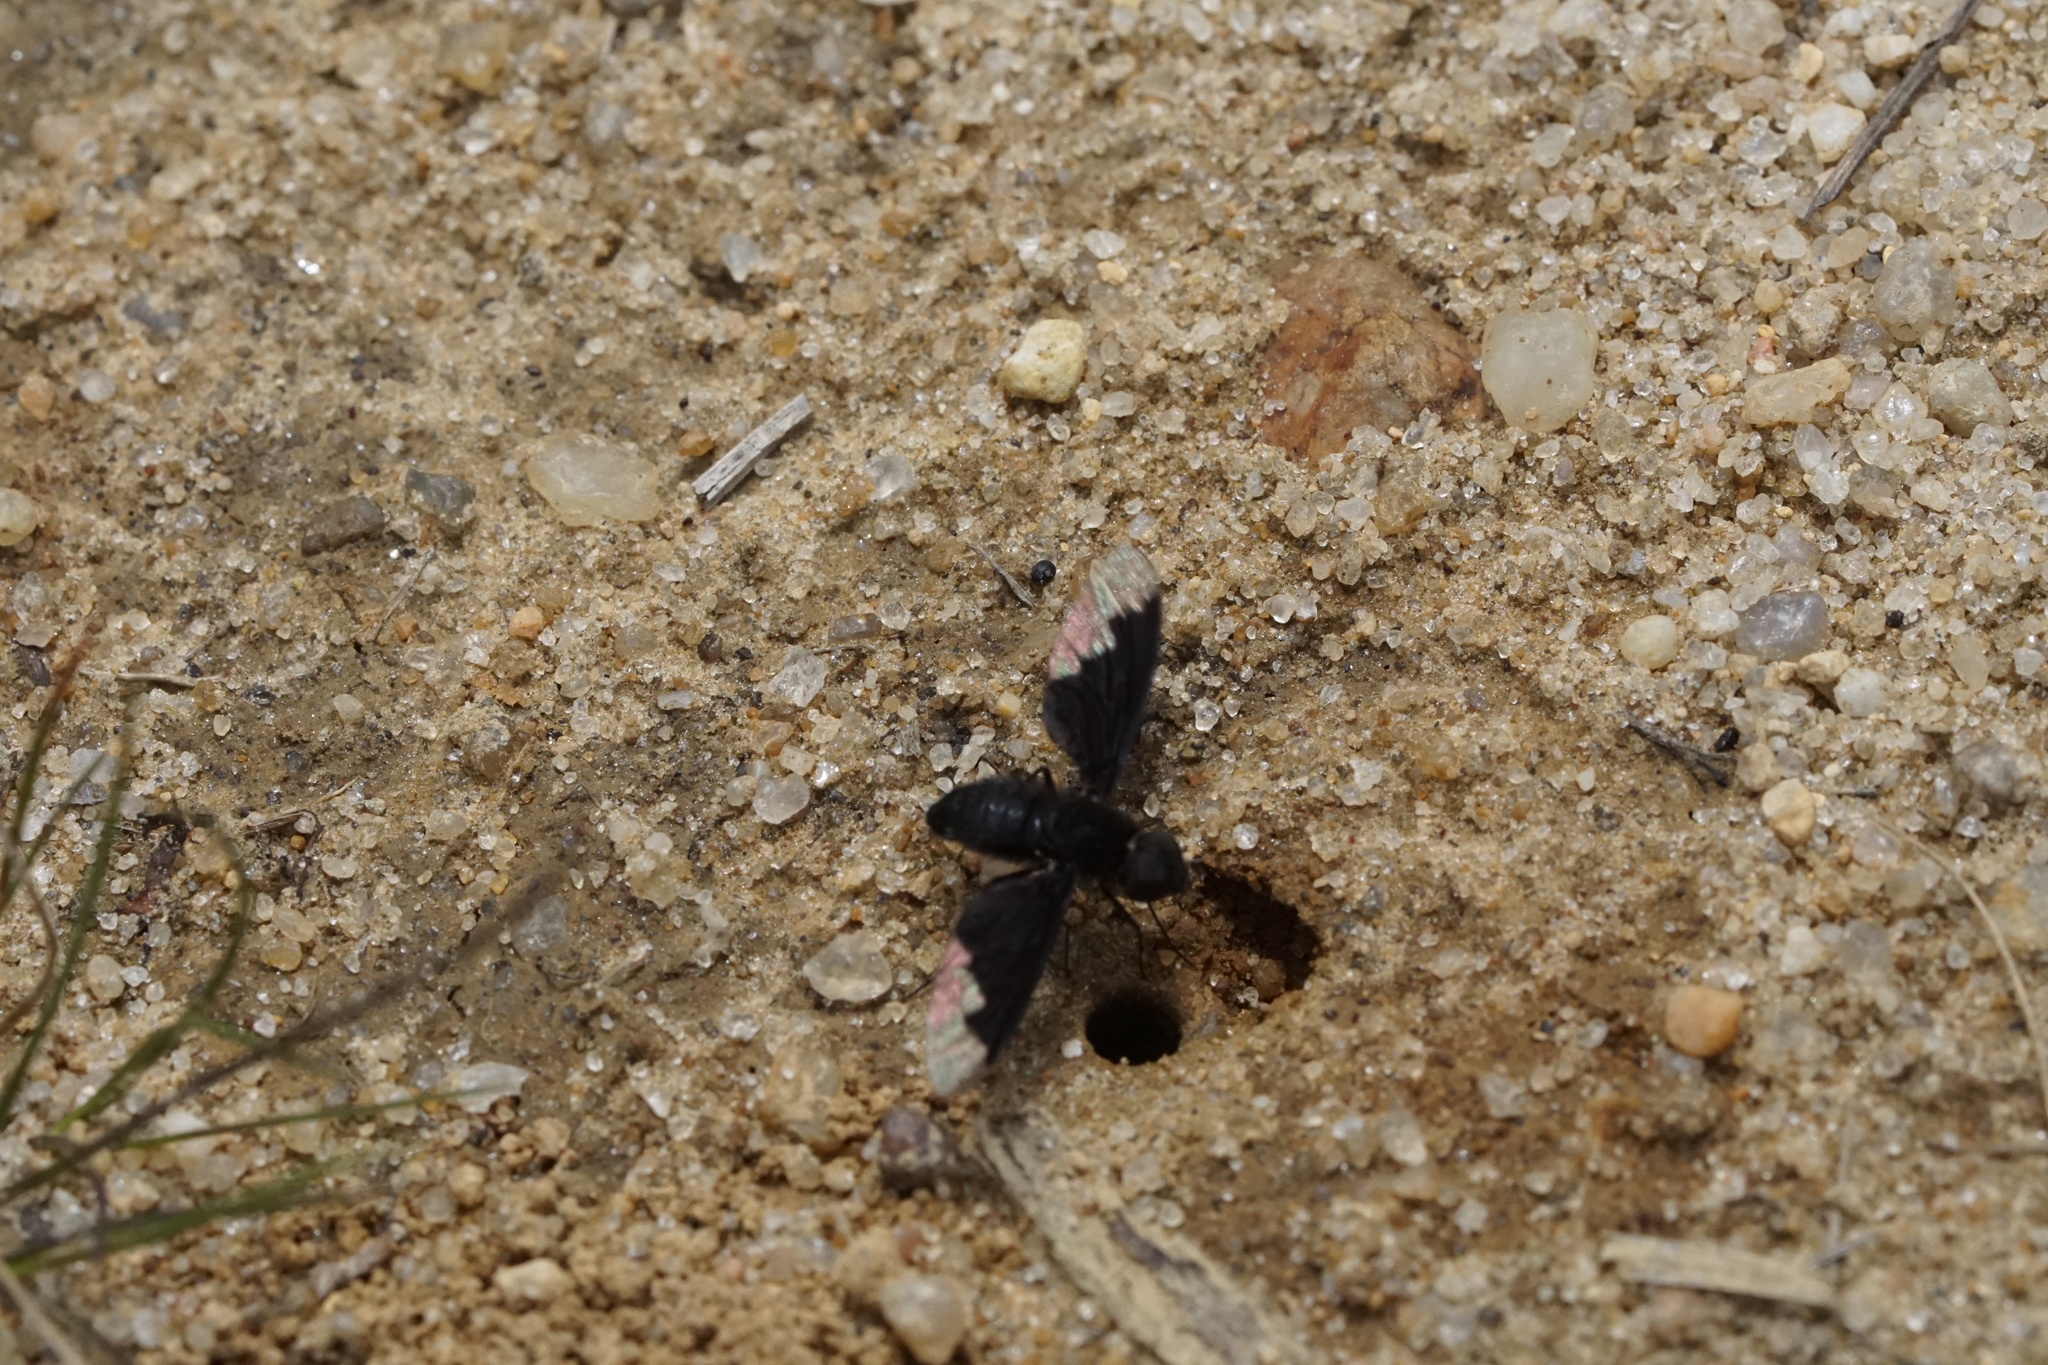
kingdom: Animalia
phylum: Arthropoda
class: Insecta
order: Diptera
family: Bombyliidae
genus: Anthrax
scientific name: Anthrax analis
